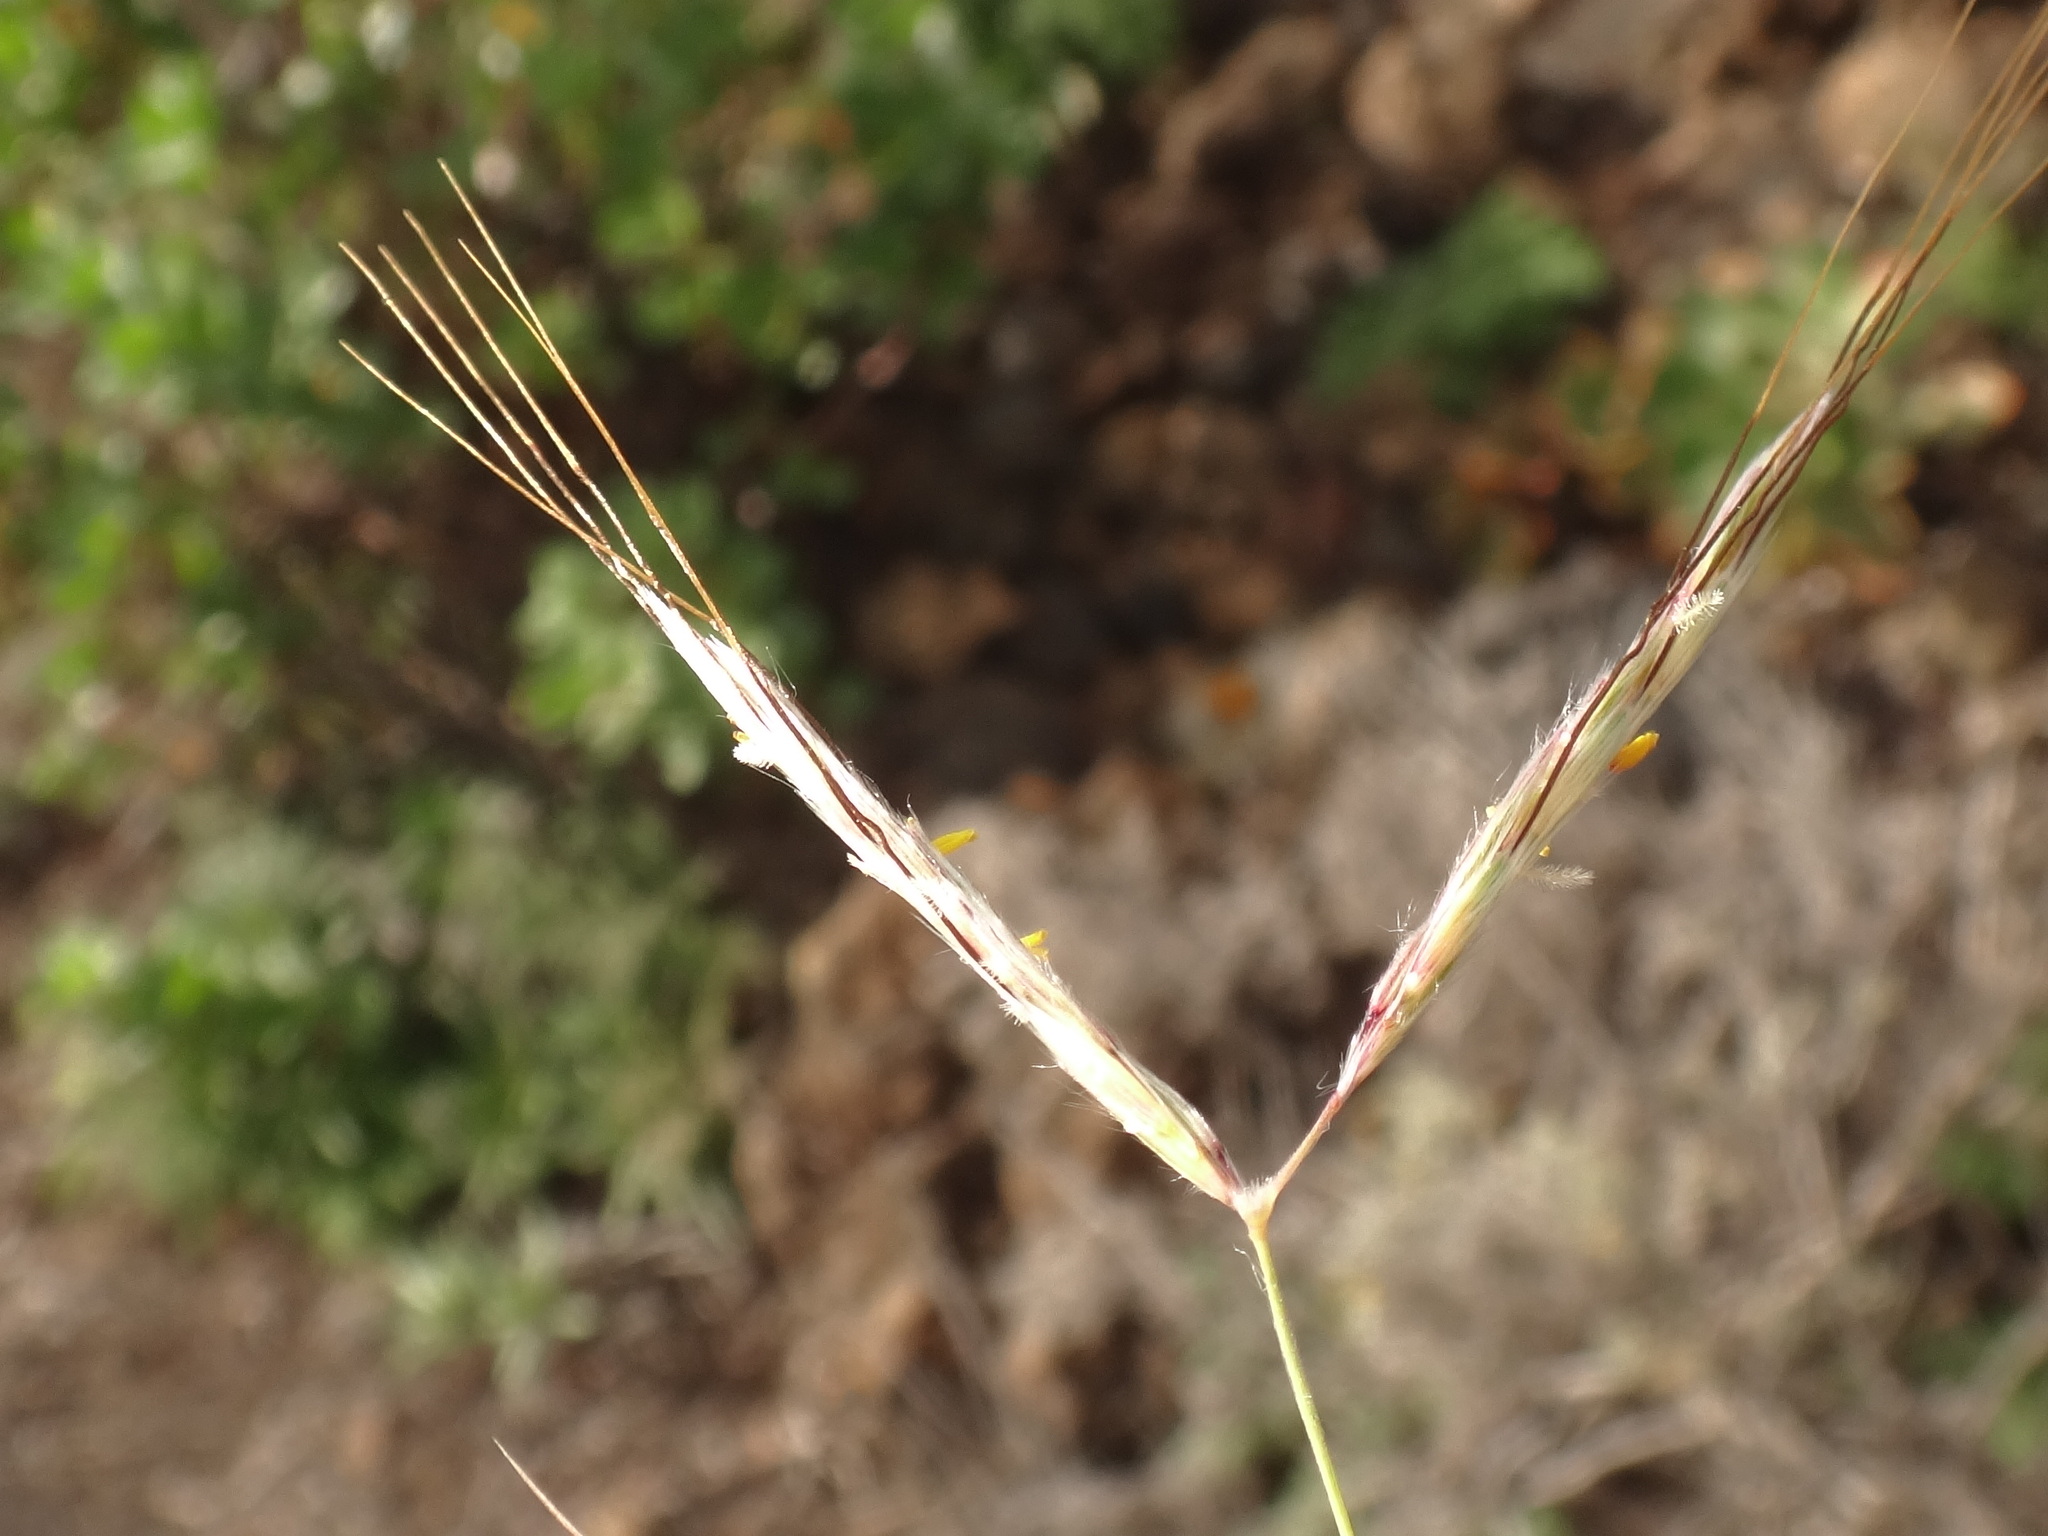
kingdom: Plantae
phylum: Tracheophyta
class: Liliopsida
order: Poales
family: Poaceae
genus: Hyparrhenia
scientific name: Hyparrhenia hirta
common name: Thatching grass
